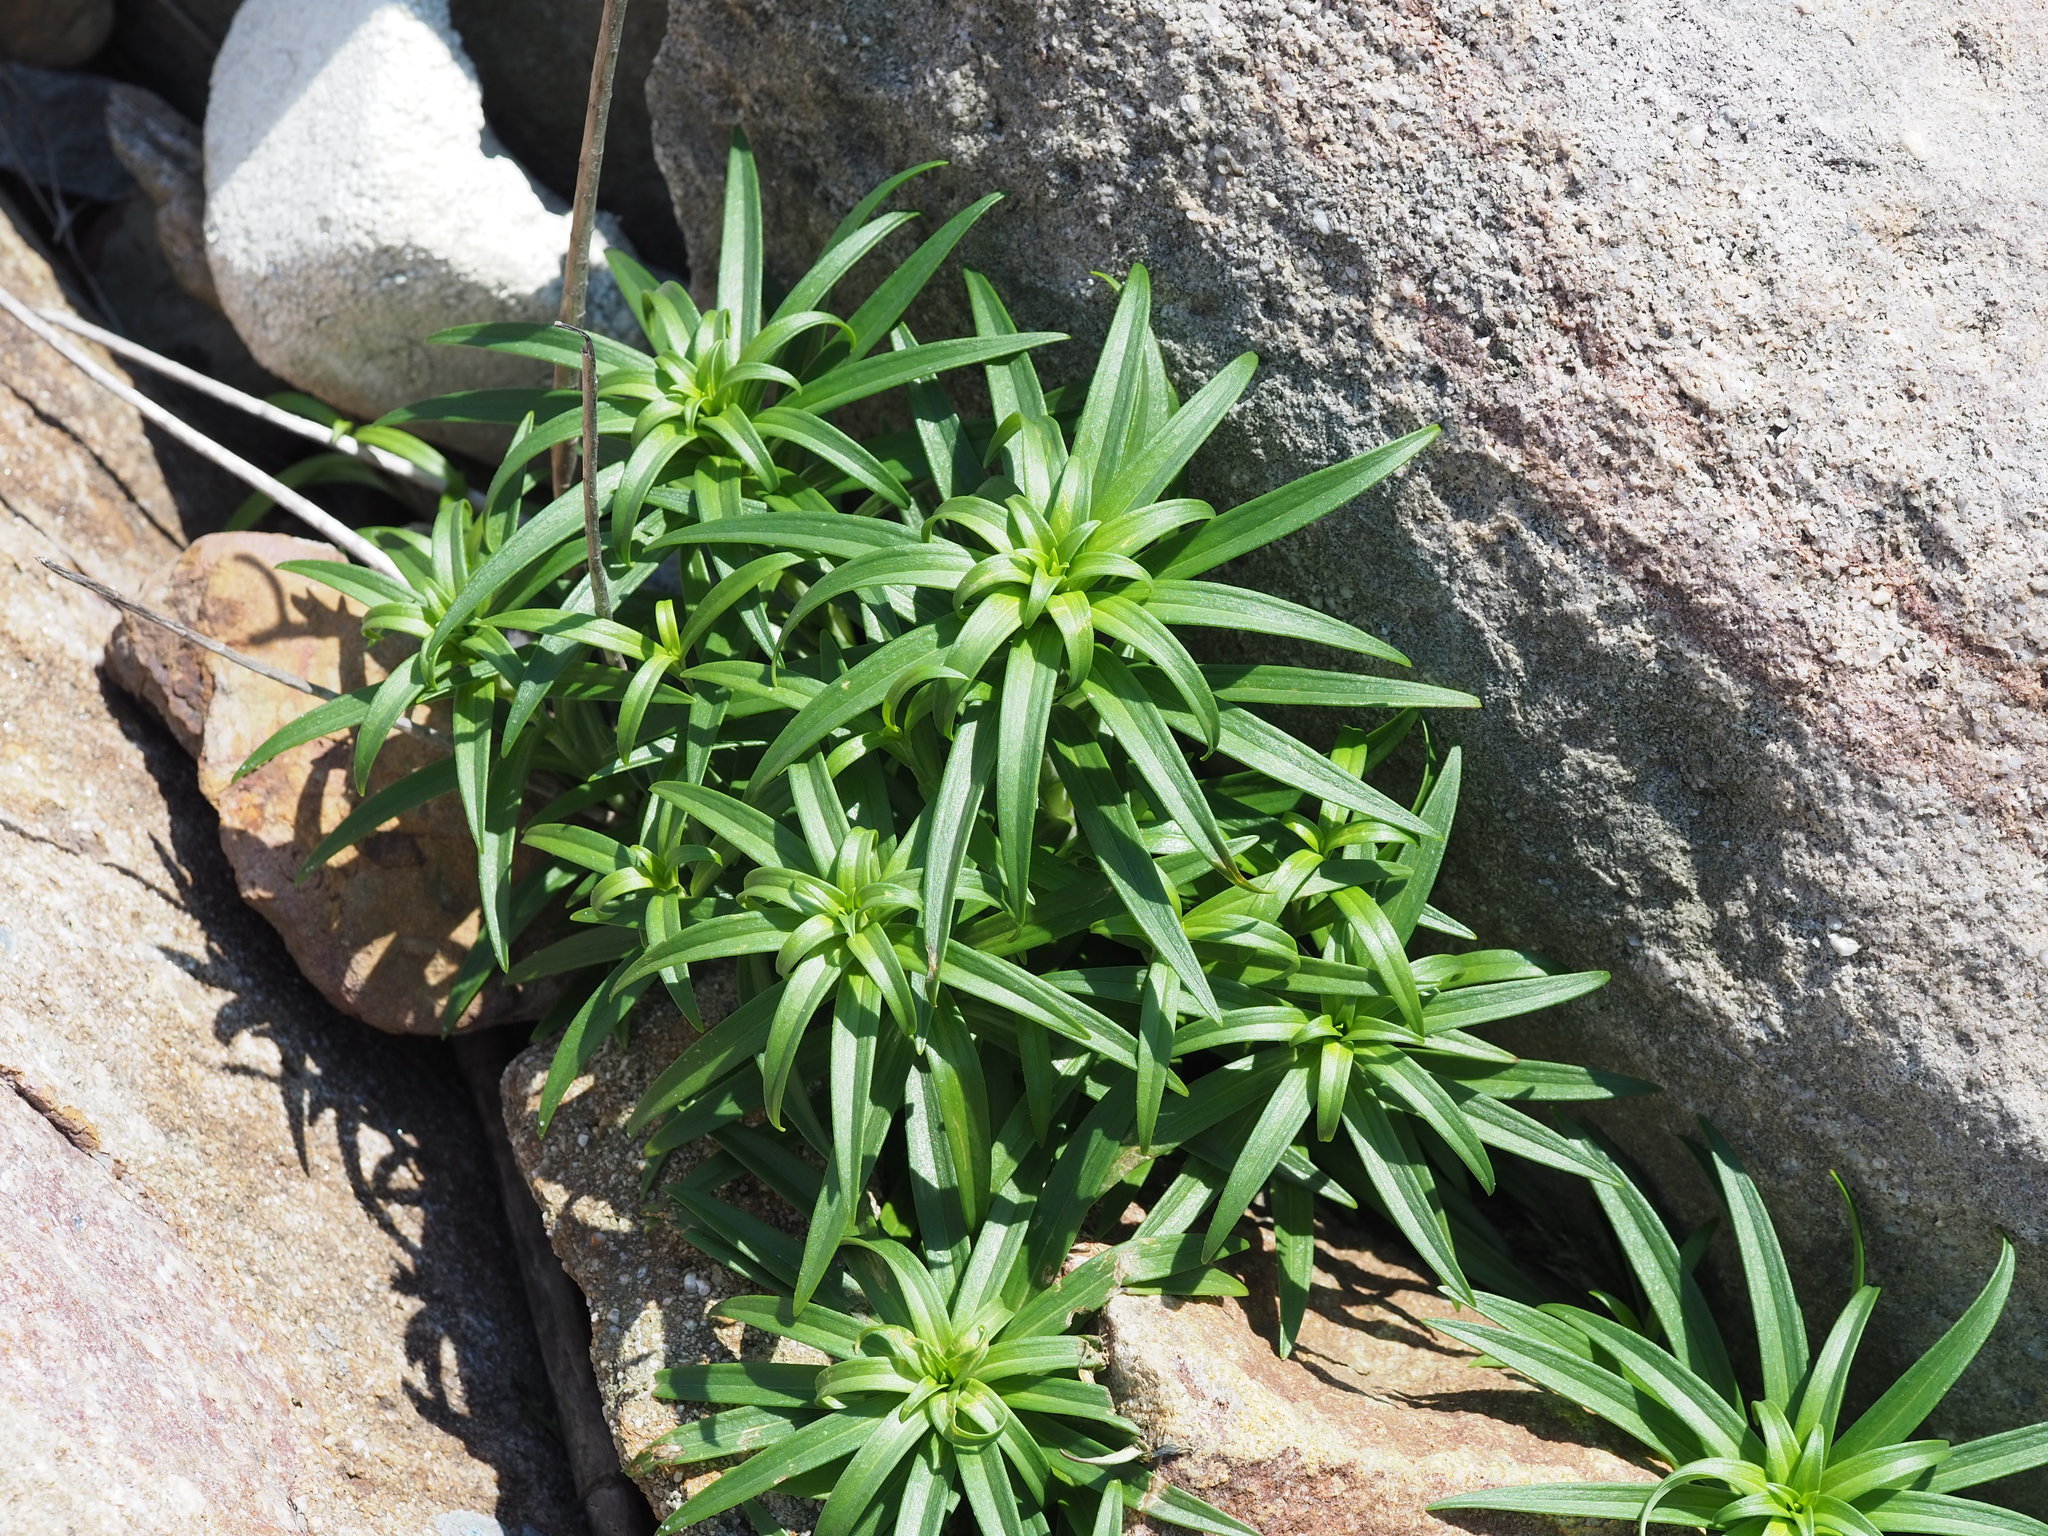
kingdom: Plantae
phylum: Tracheophyta
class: Liliopsida
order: Liliales
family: Liliaceae
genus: Lilium
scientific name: Lilium longiflorum
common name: Easter lily
